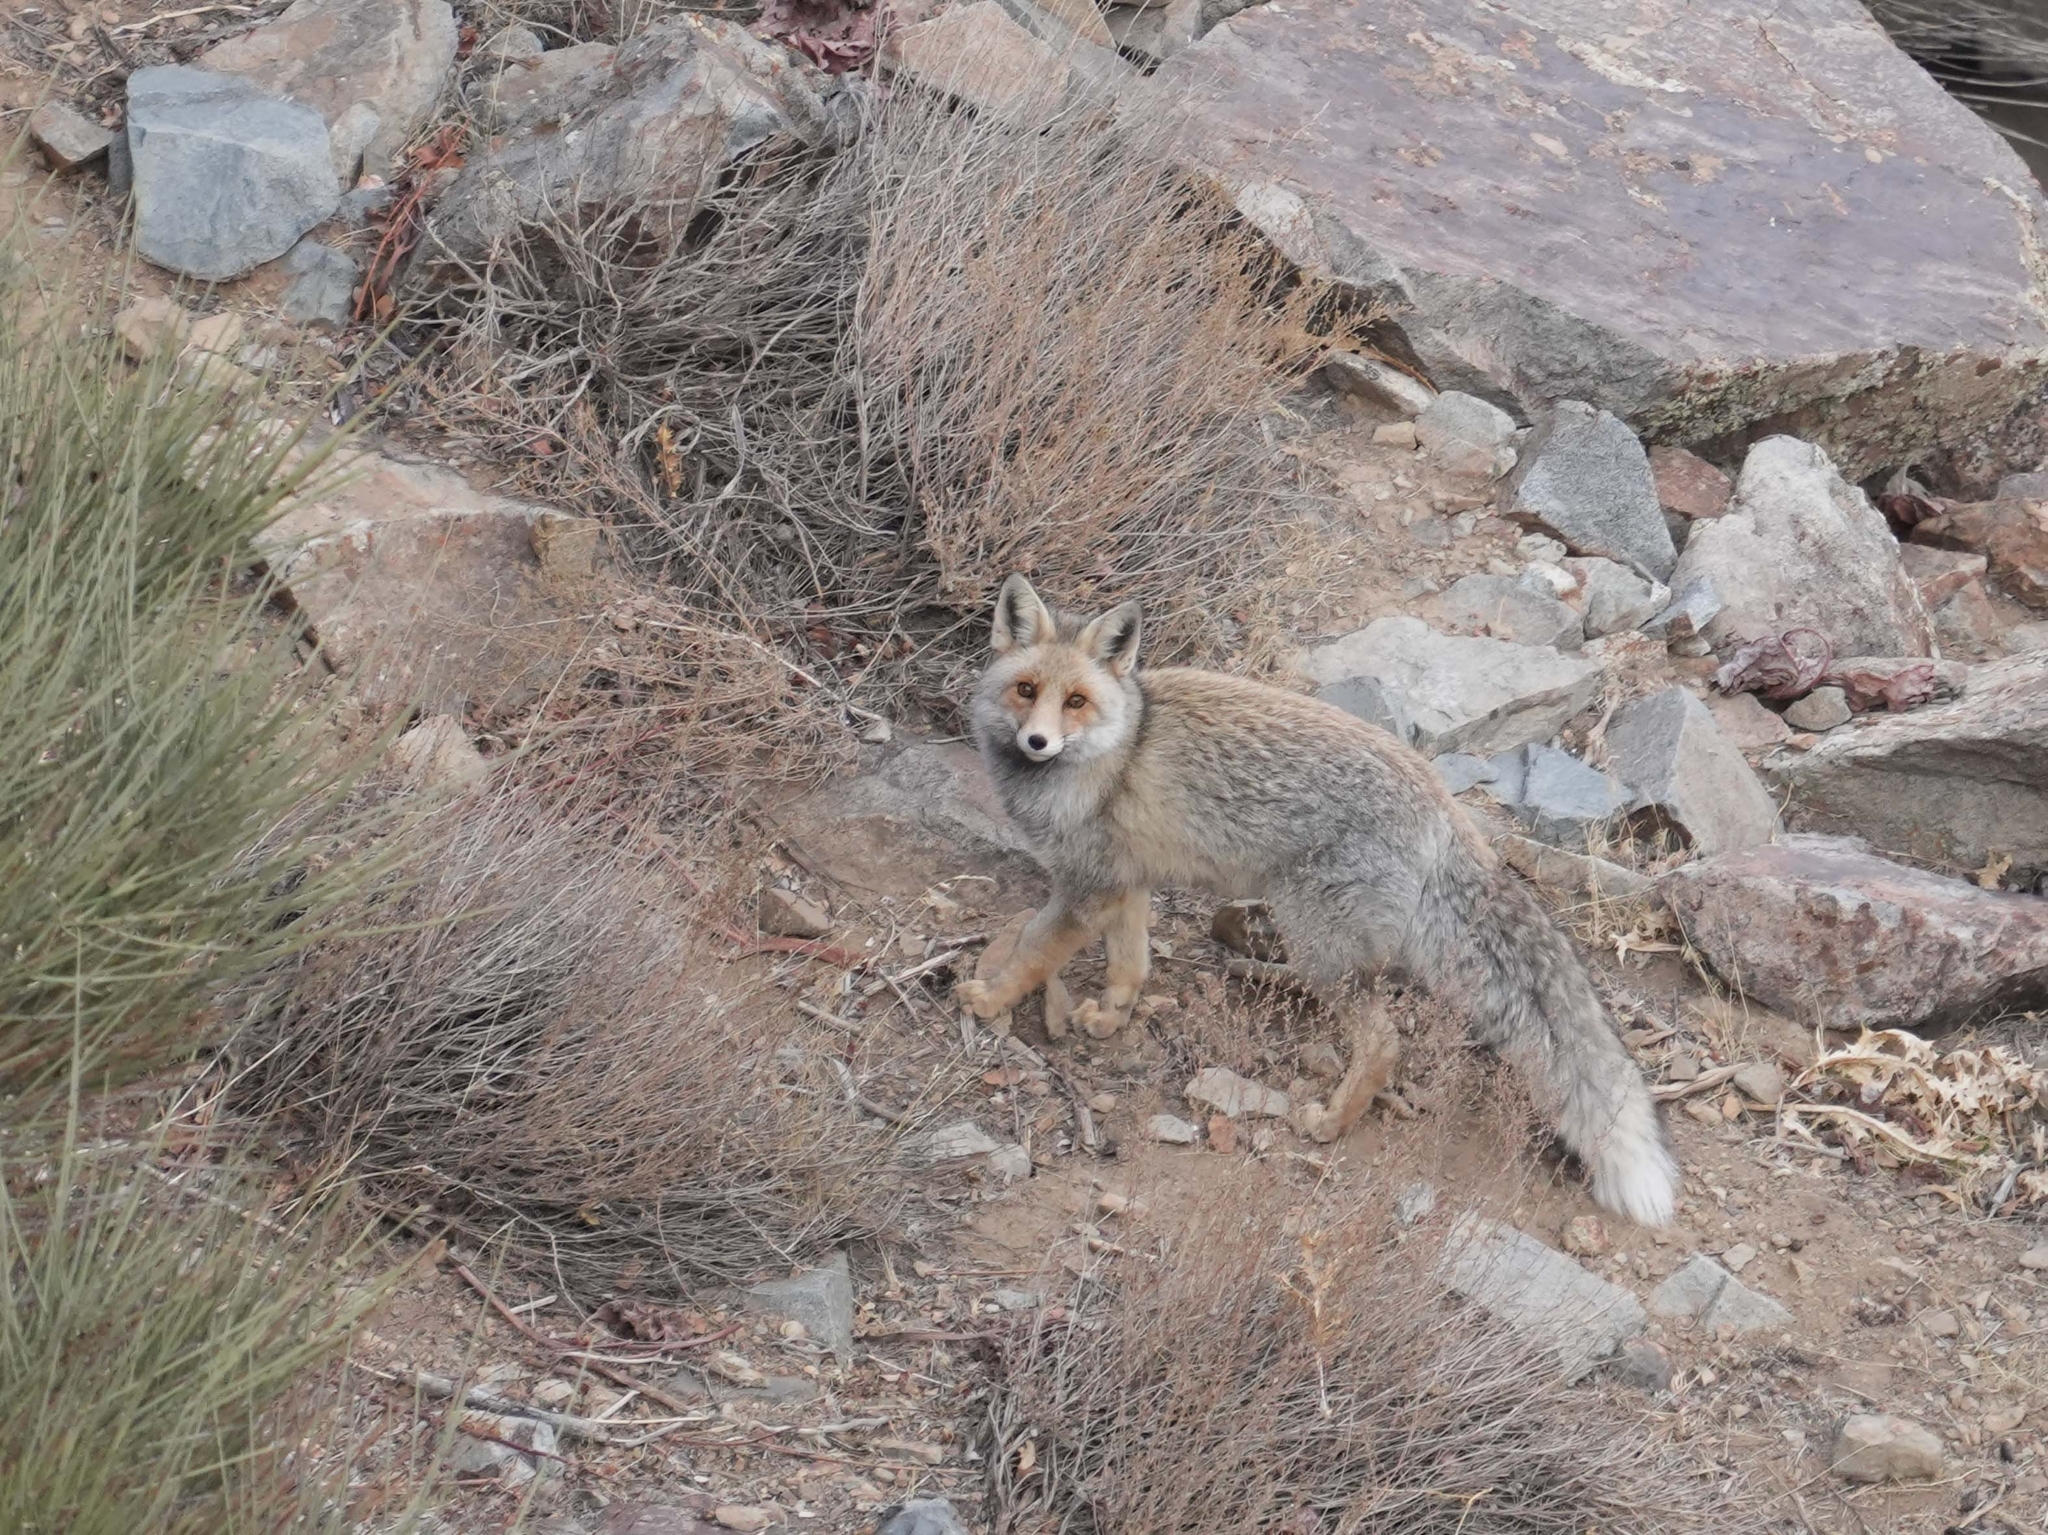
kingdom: Animalia
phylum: Chordata
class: Mammalia
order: Carnivora
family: Canidae
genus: Vulpes
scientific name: Vulpes vulpes
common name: Red fox
